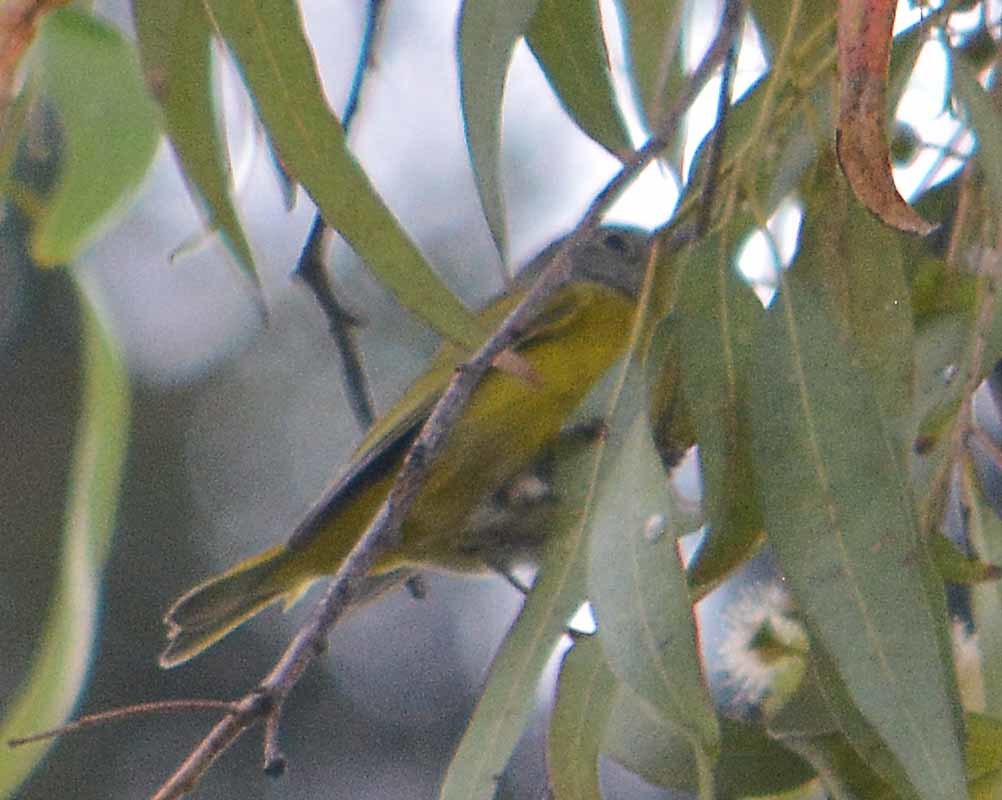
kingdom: Animalia
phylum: Chordata
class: Aves
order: Passeriformes
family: Parulidae
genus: Leiothlypis
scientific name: Leiothlypis ruficapilla
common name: Nashville warbler
